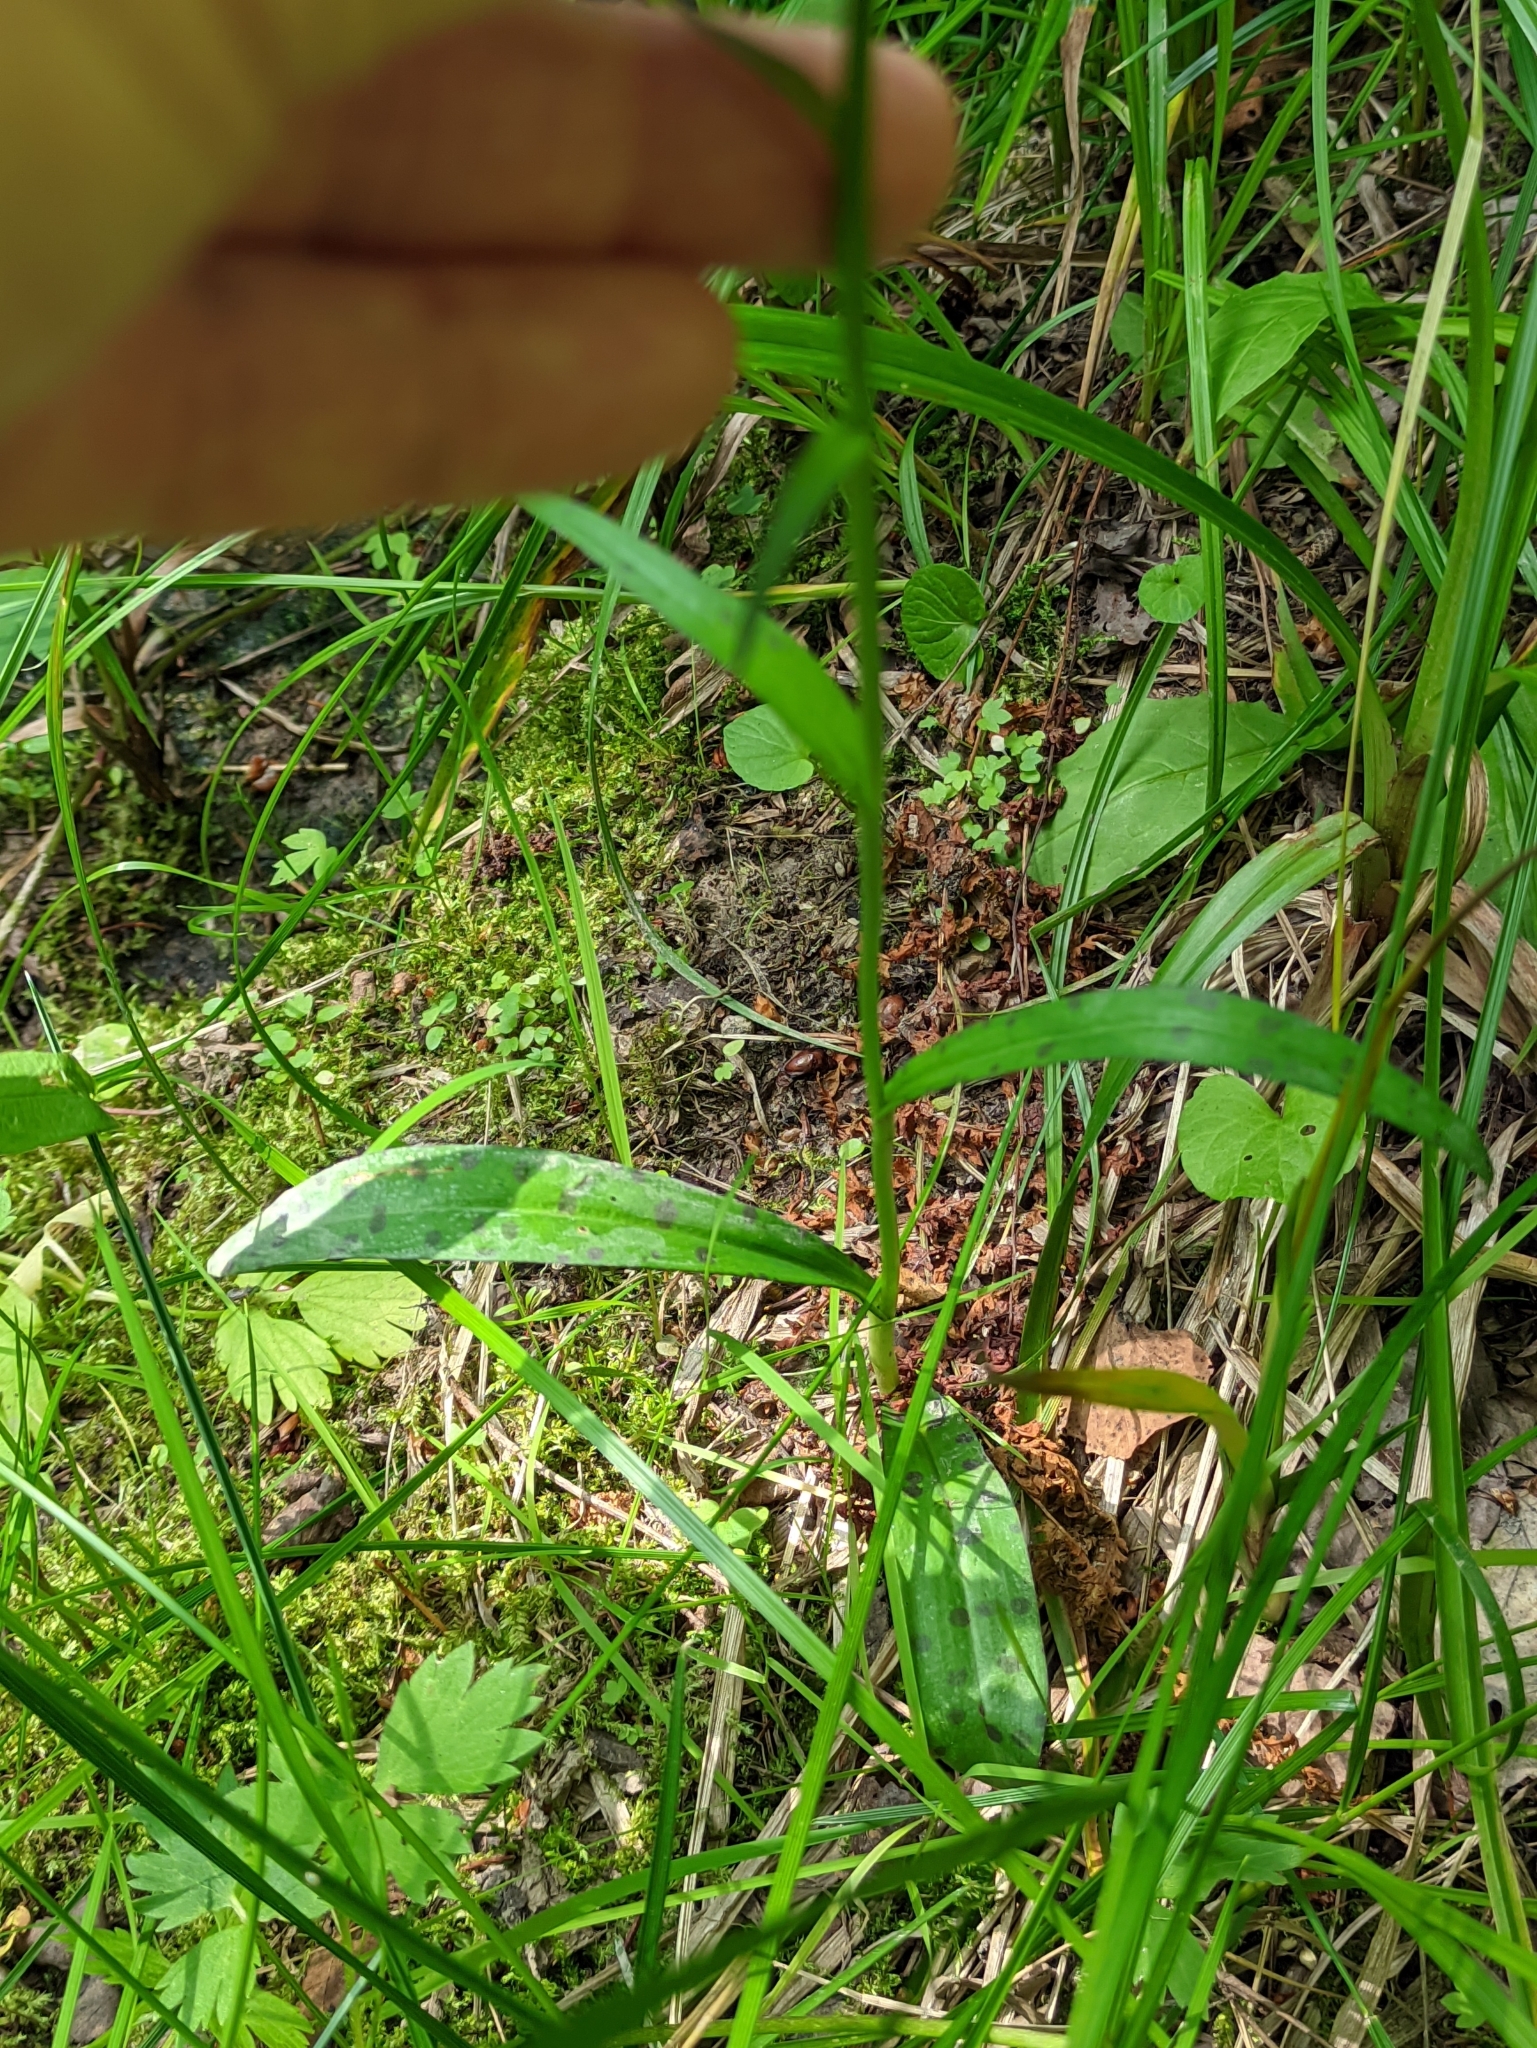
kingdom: Plantae
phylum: Tracheophyta
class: Liliopsida
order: Asparagales
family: Orchidaceae
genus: Dactylorhiza
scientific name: Dactylorhiza maculata
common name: Heath spotted-orchid
